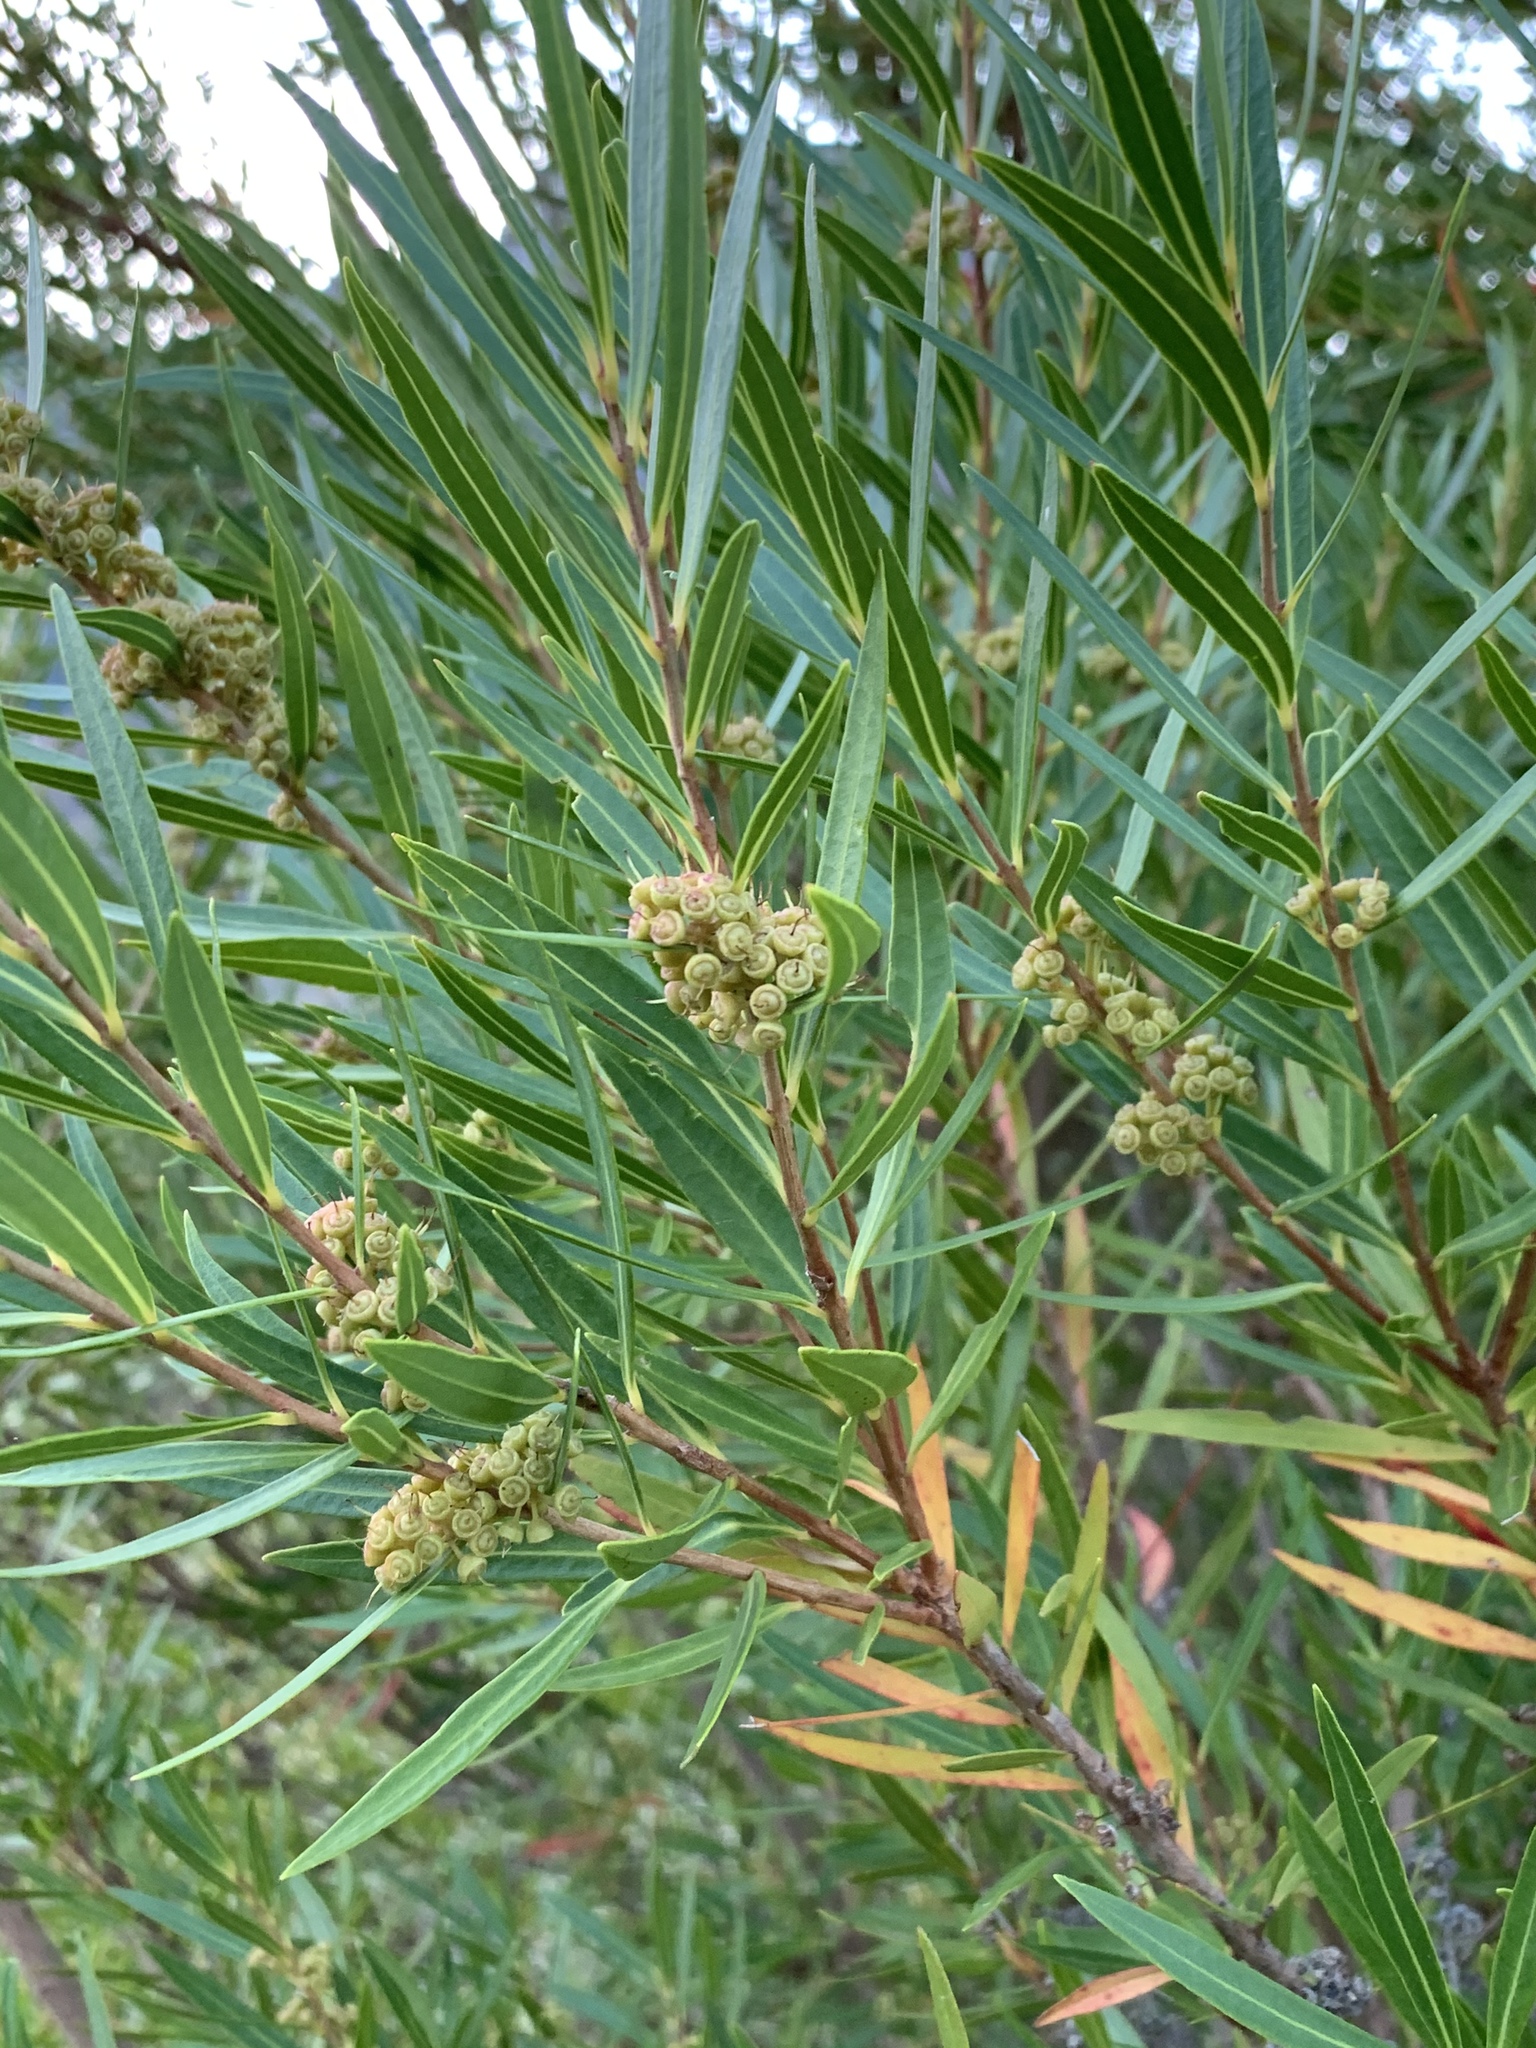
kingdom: Plantae
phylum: Tracheophyta
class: Magnoliopsida
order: Myrtales
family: Myrtaceae
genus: Callistemon
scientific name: Callistemon lanceolatus
